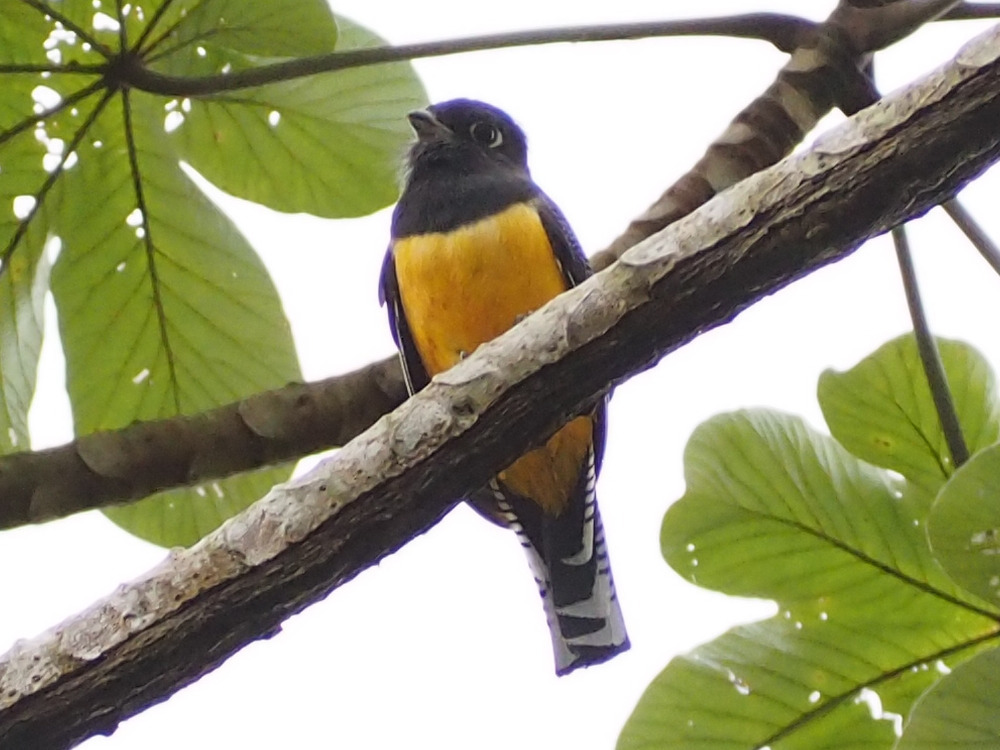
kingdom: Animalia
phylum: Chordata
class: Aves
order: Trogoniformes
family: Trogonidae
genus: Trogon
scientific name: Trogon caligatus
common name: Gartered trogon
